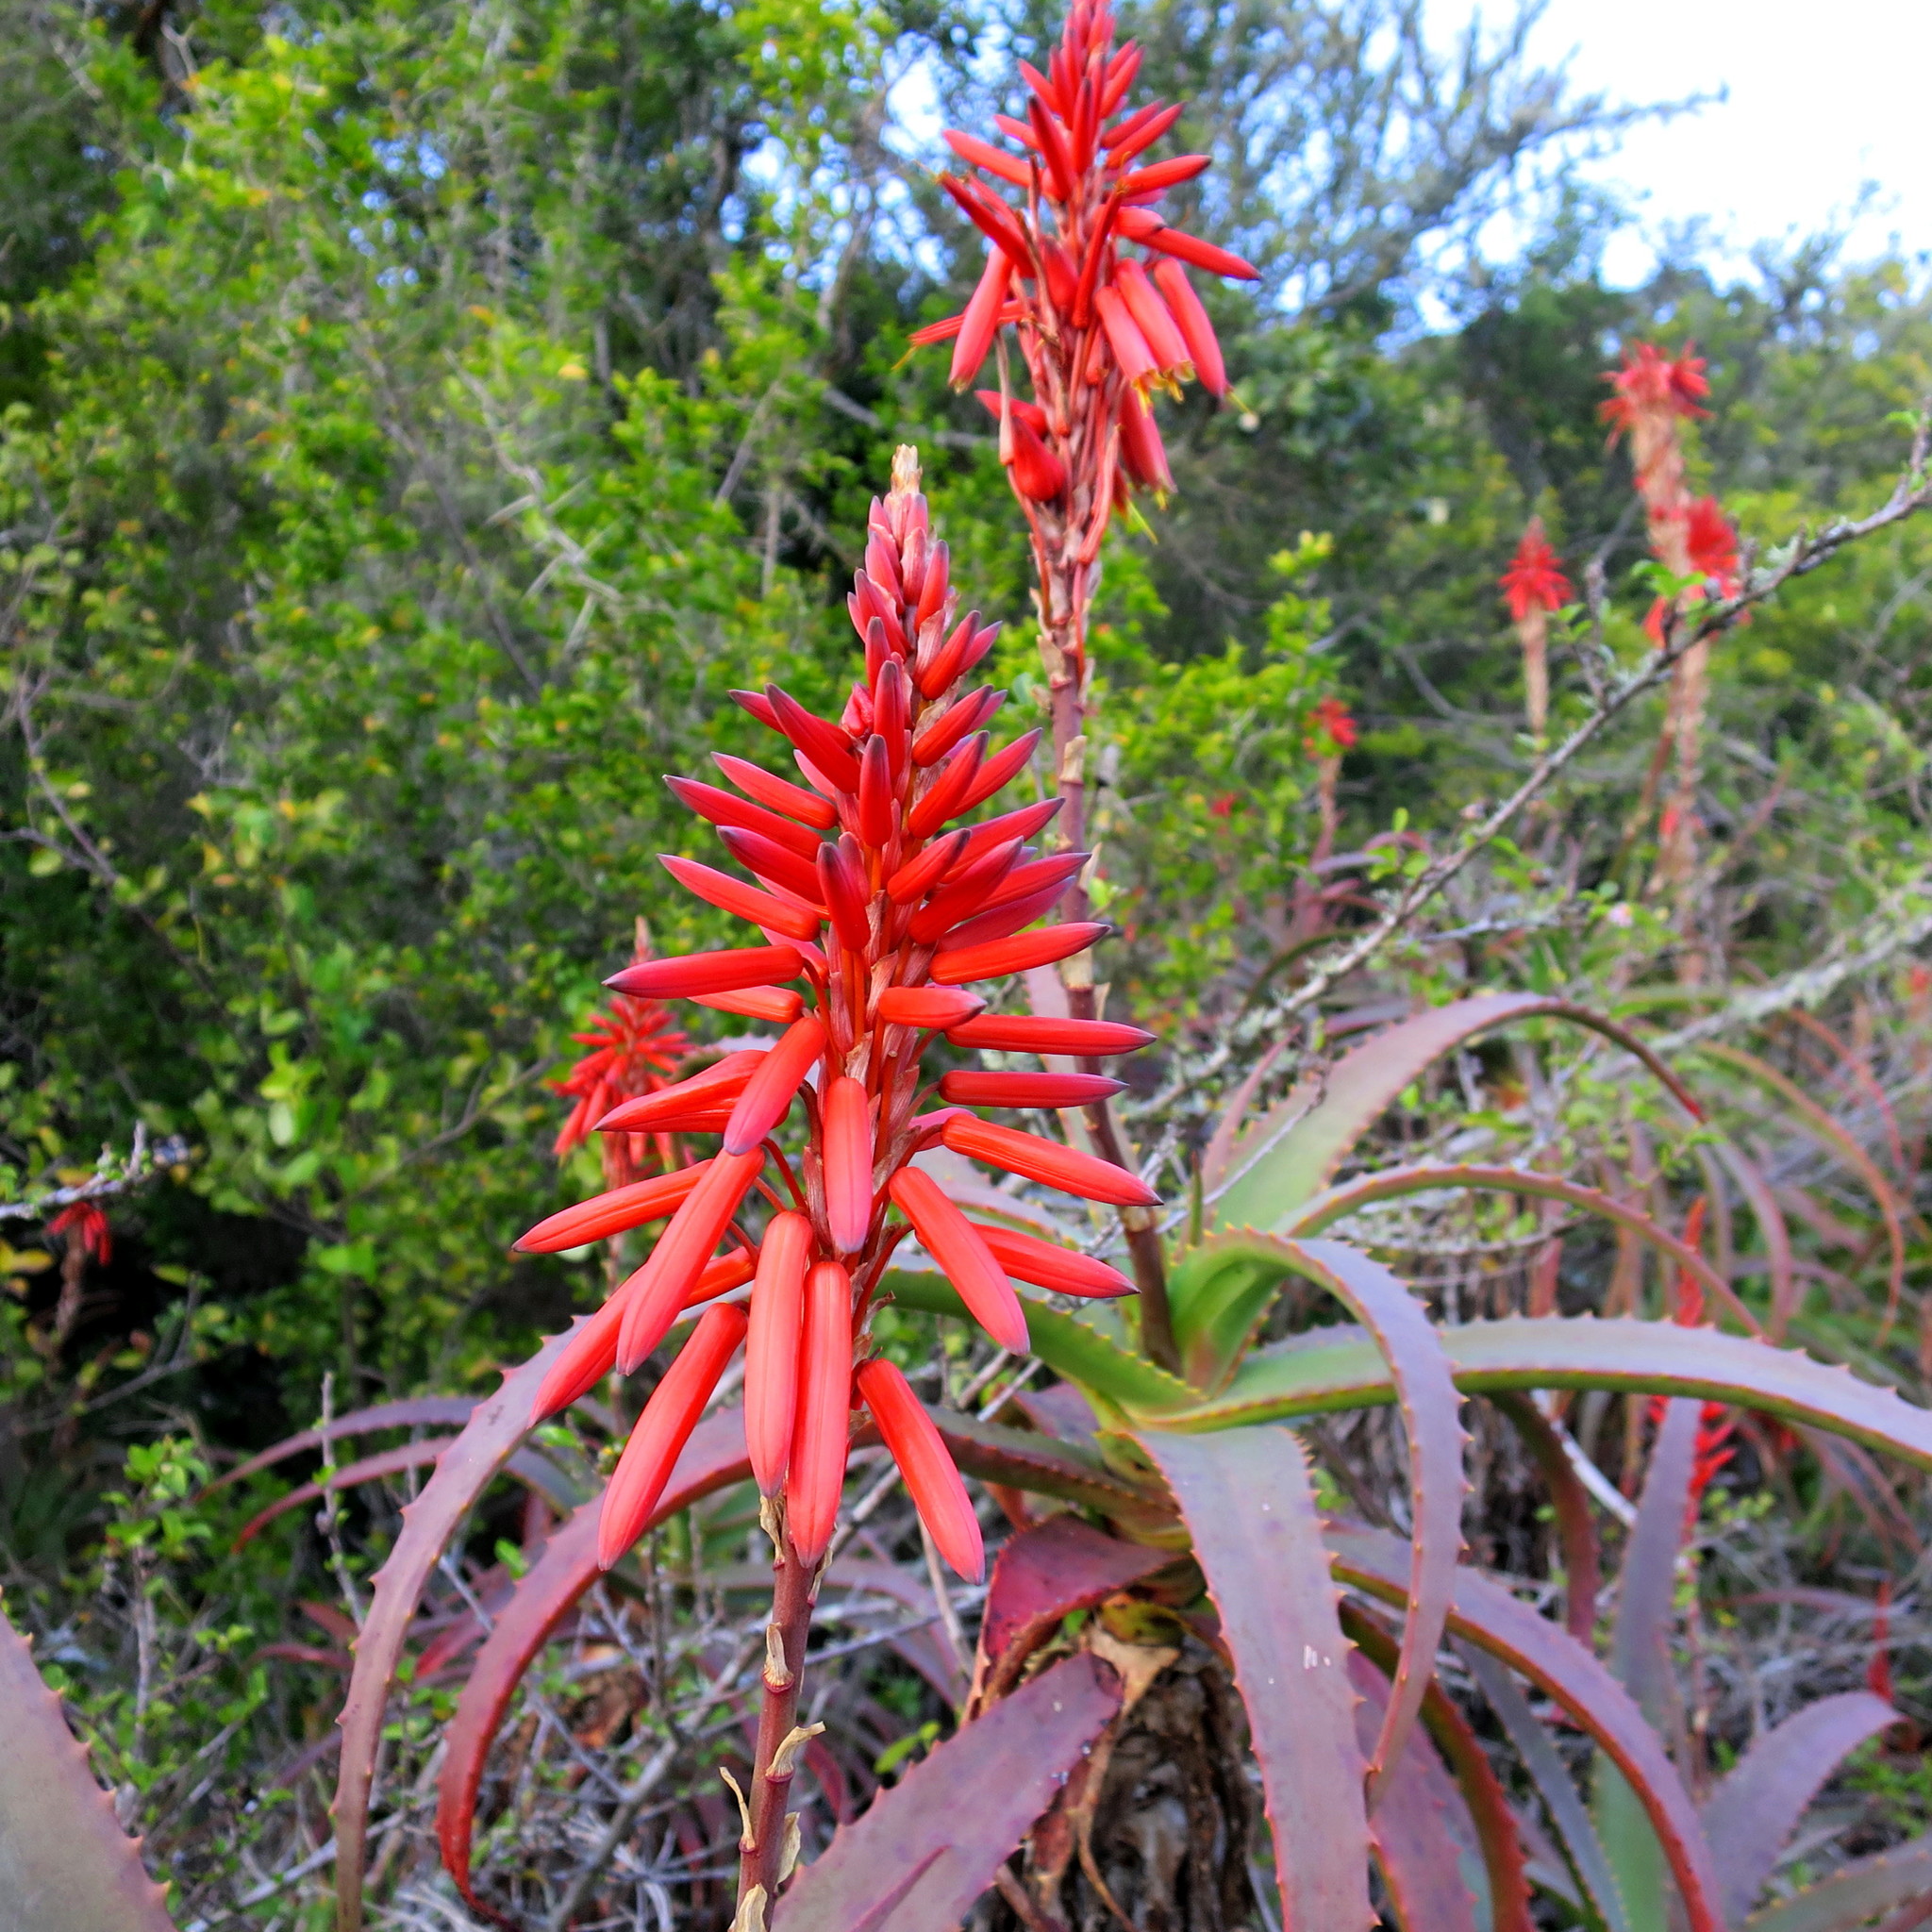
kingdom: Plantae
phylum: Tracheophyta
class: Liliopsida
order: Asparagales
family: Asphodelaceae
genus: Aloe
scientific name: Aloe arborescens
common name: Candelabra aloe
